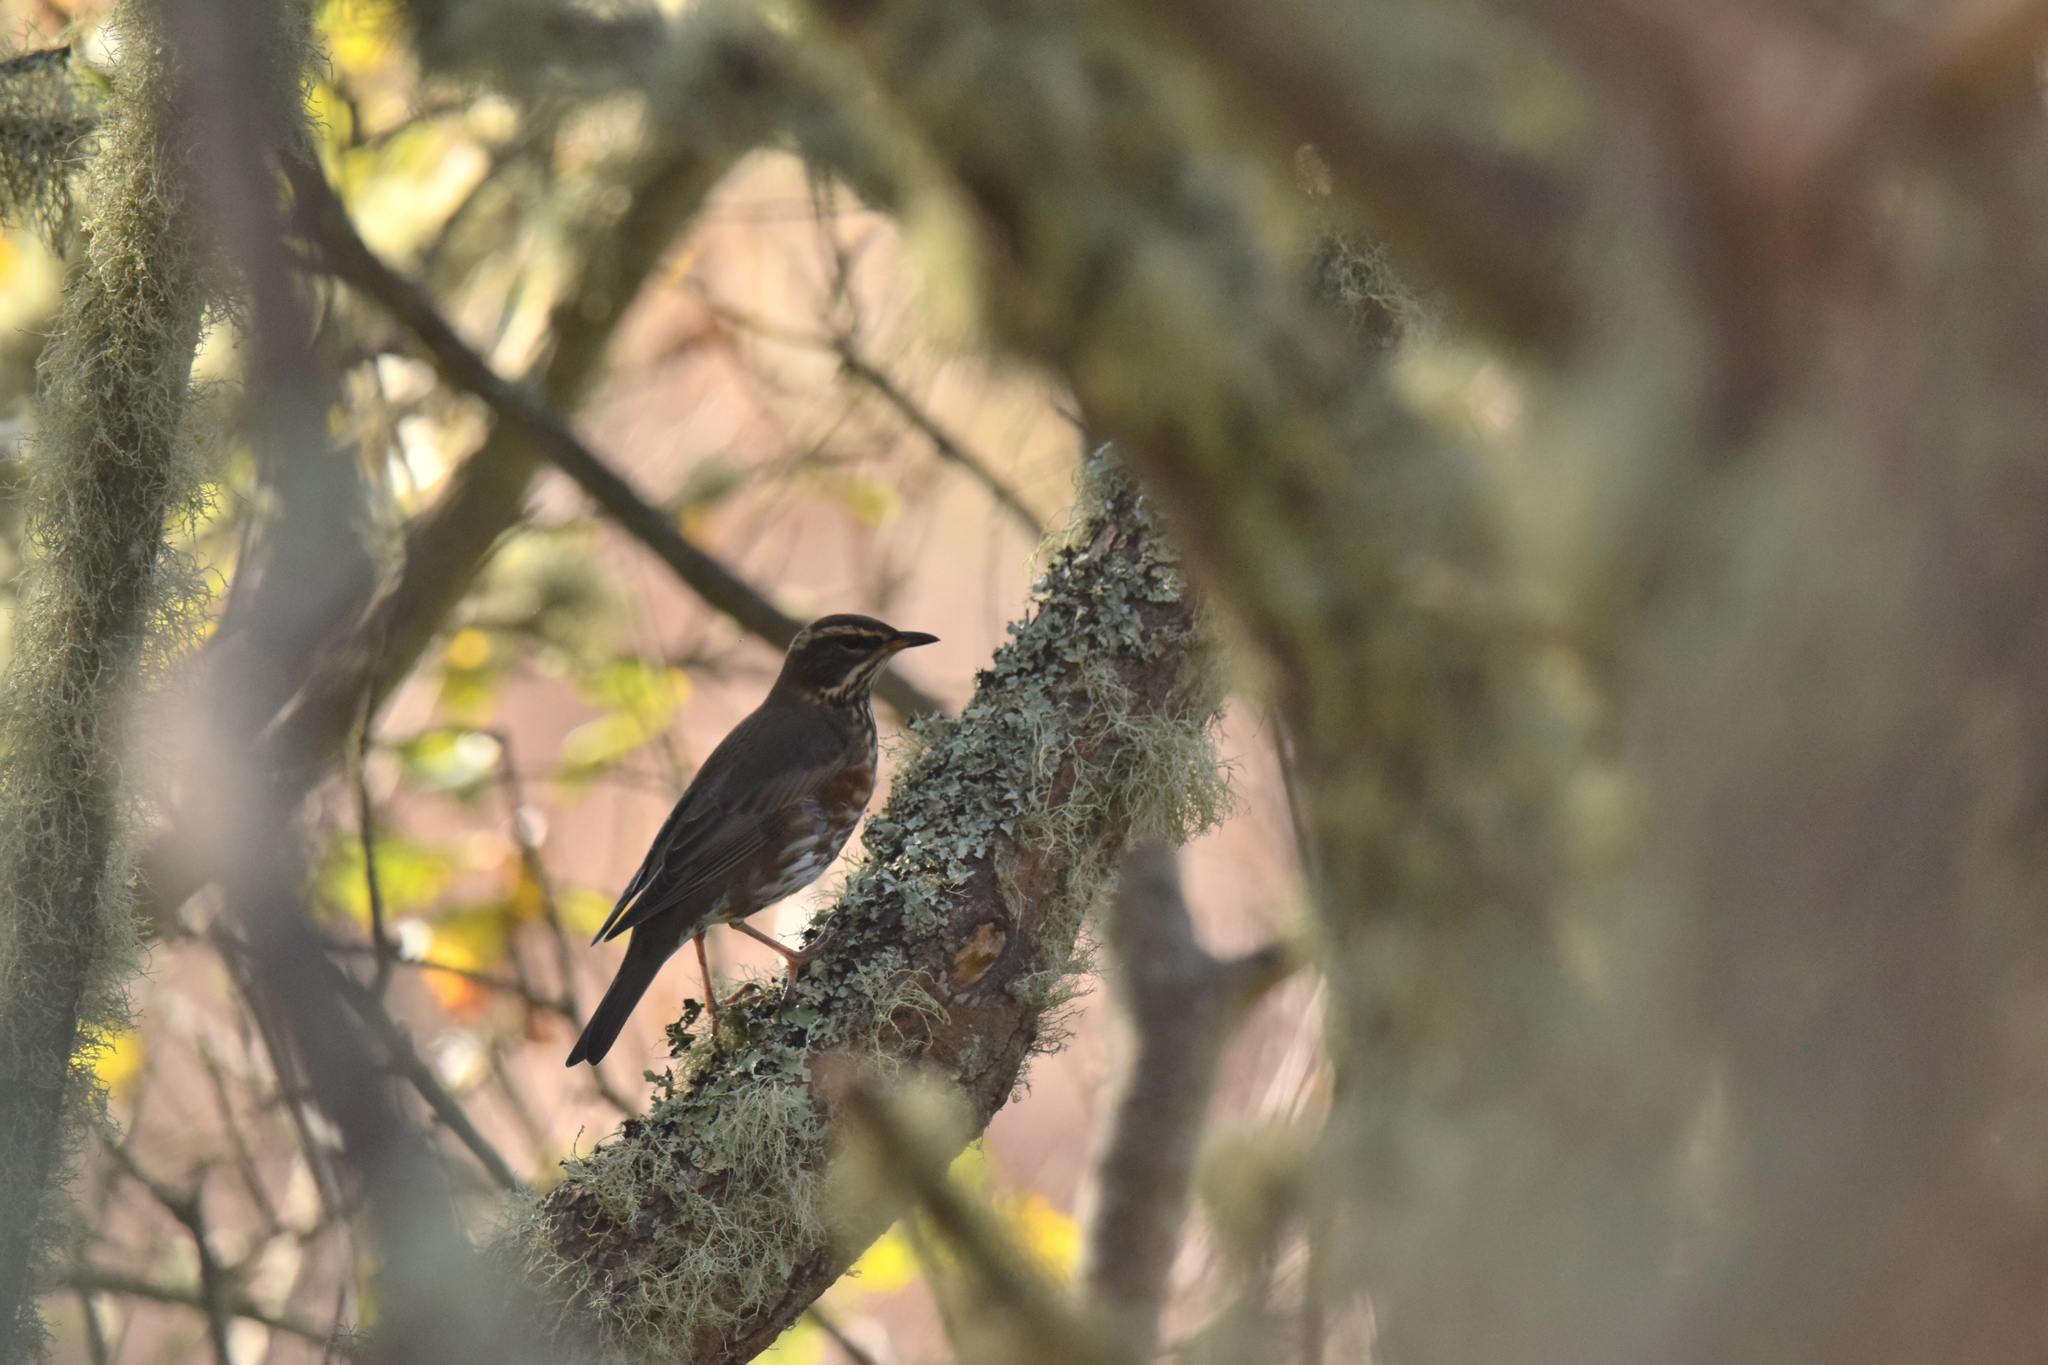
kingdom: Animalia
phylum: Chordata
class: Aves
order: Passeriformes
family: Turdidae
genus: Turdus
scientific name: Turdus iliacus
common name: Redwing
